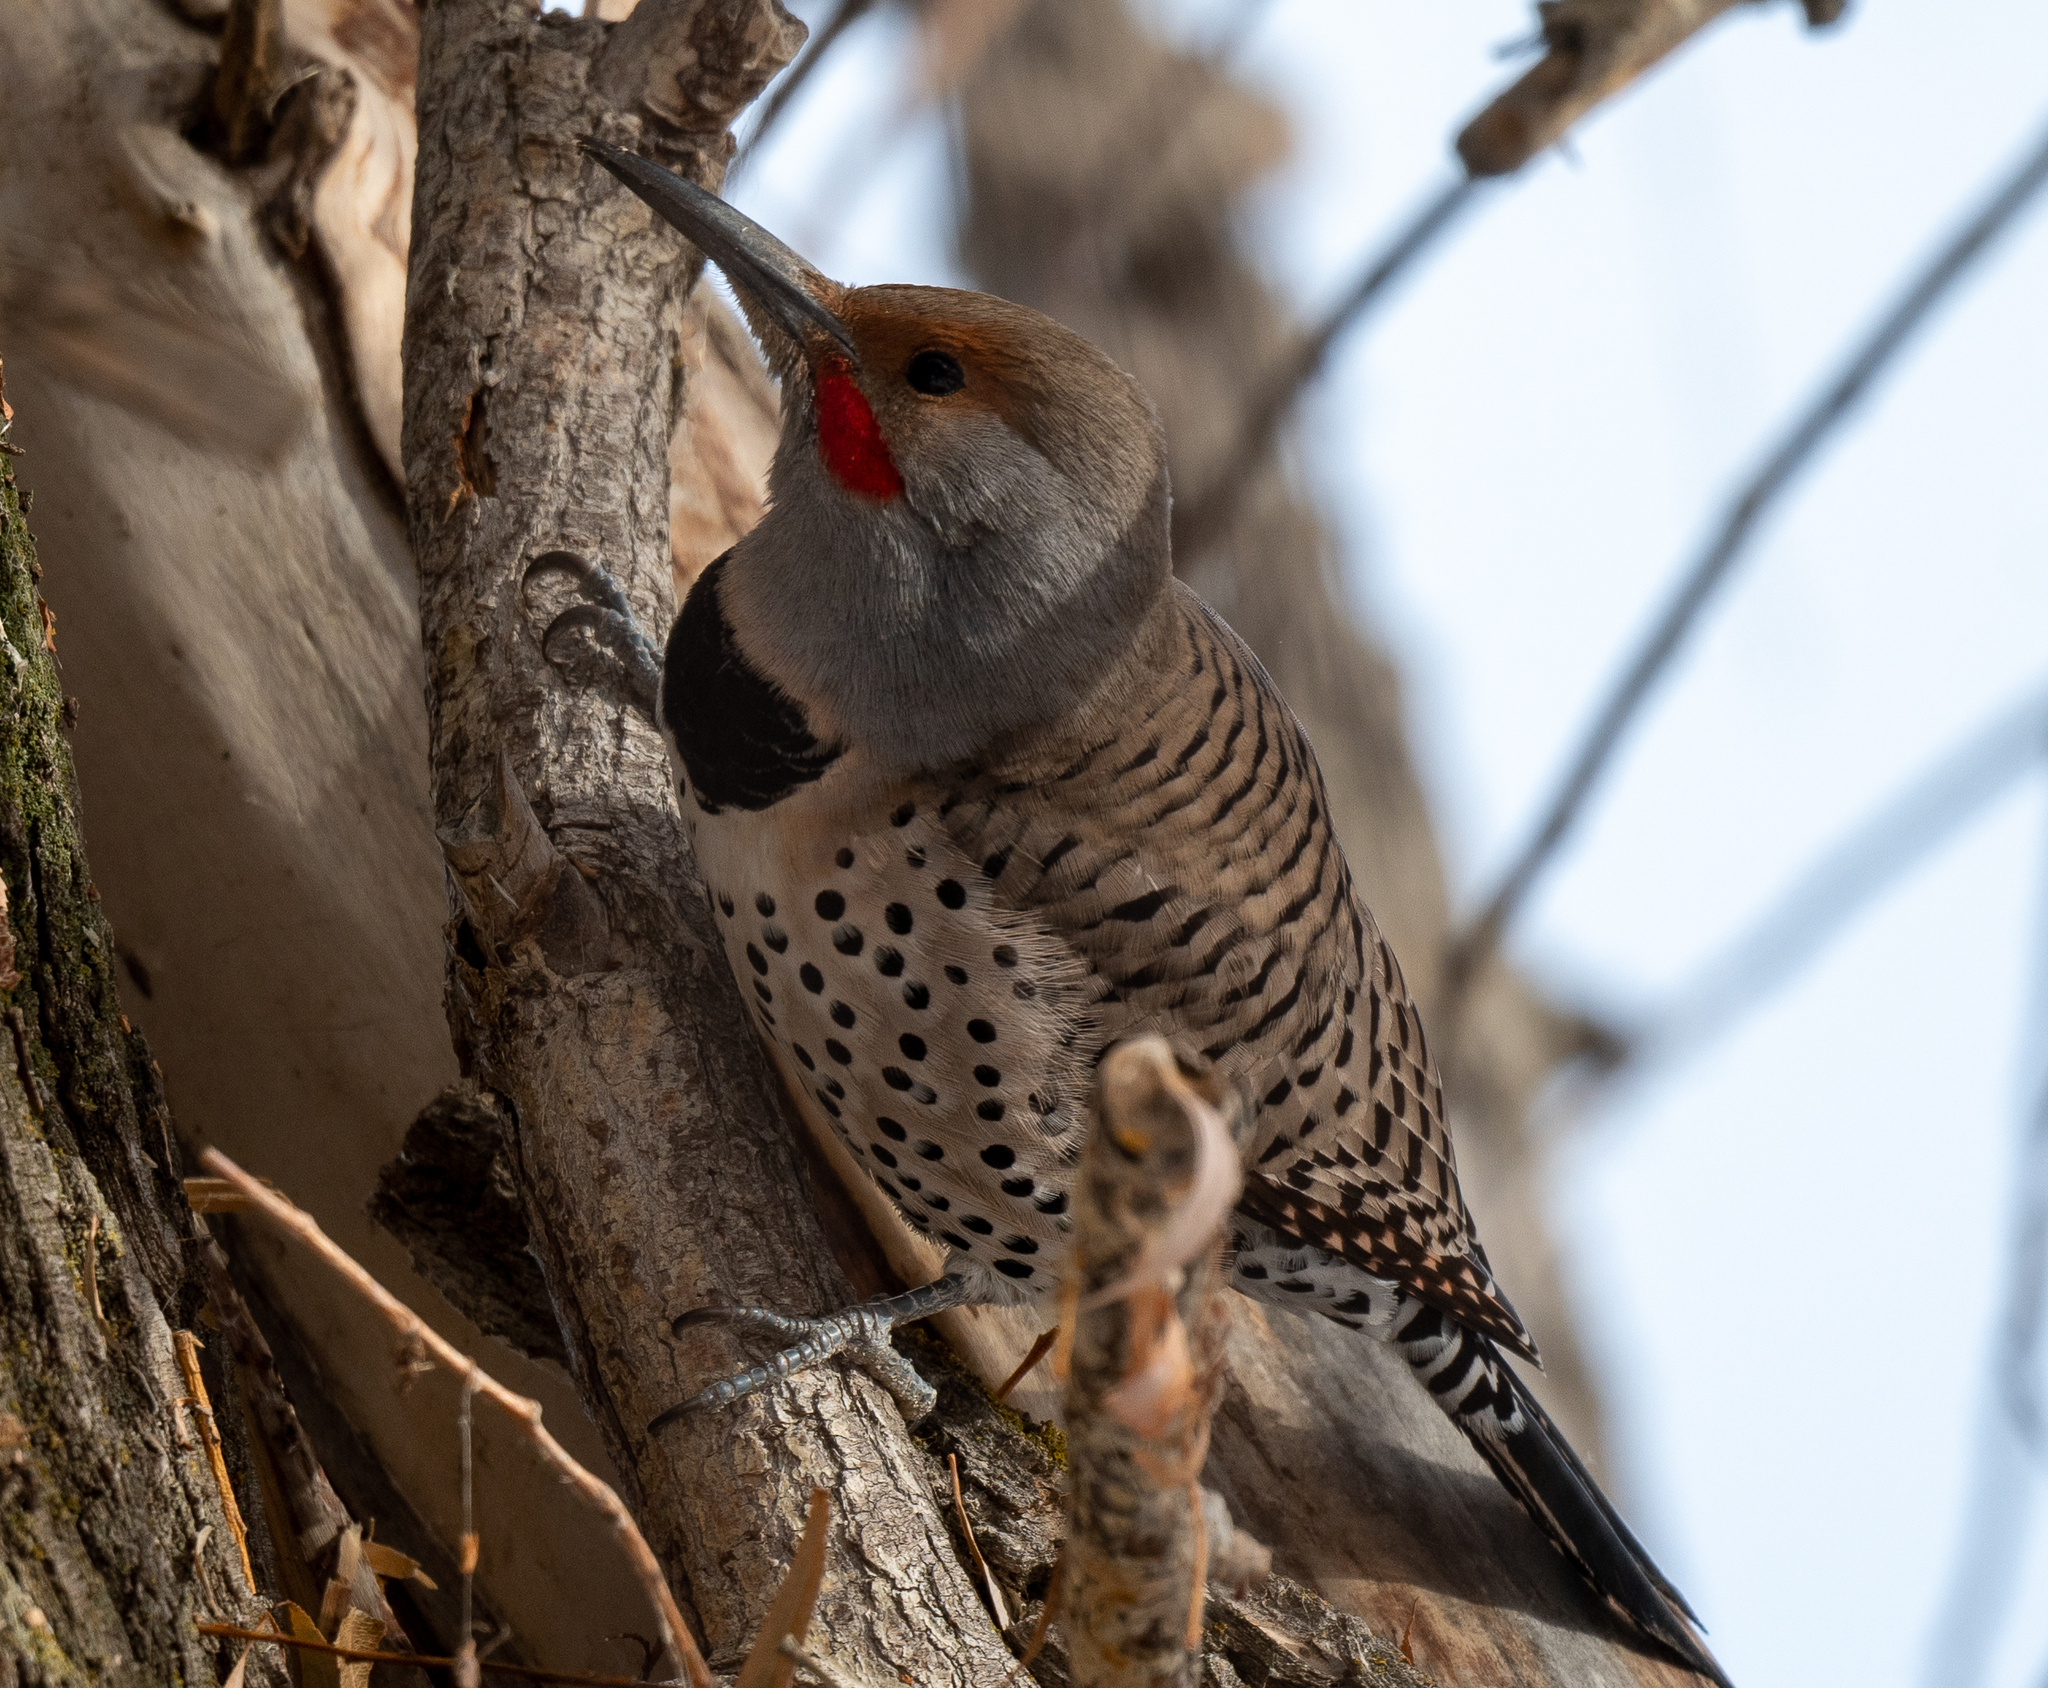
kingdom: Animalia
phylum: Chordata
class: Aves
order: Piciformes
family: Picidae
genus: Colaptes
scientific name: Colaptes auratus
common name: Northern flicker
